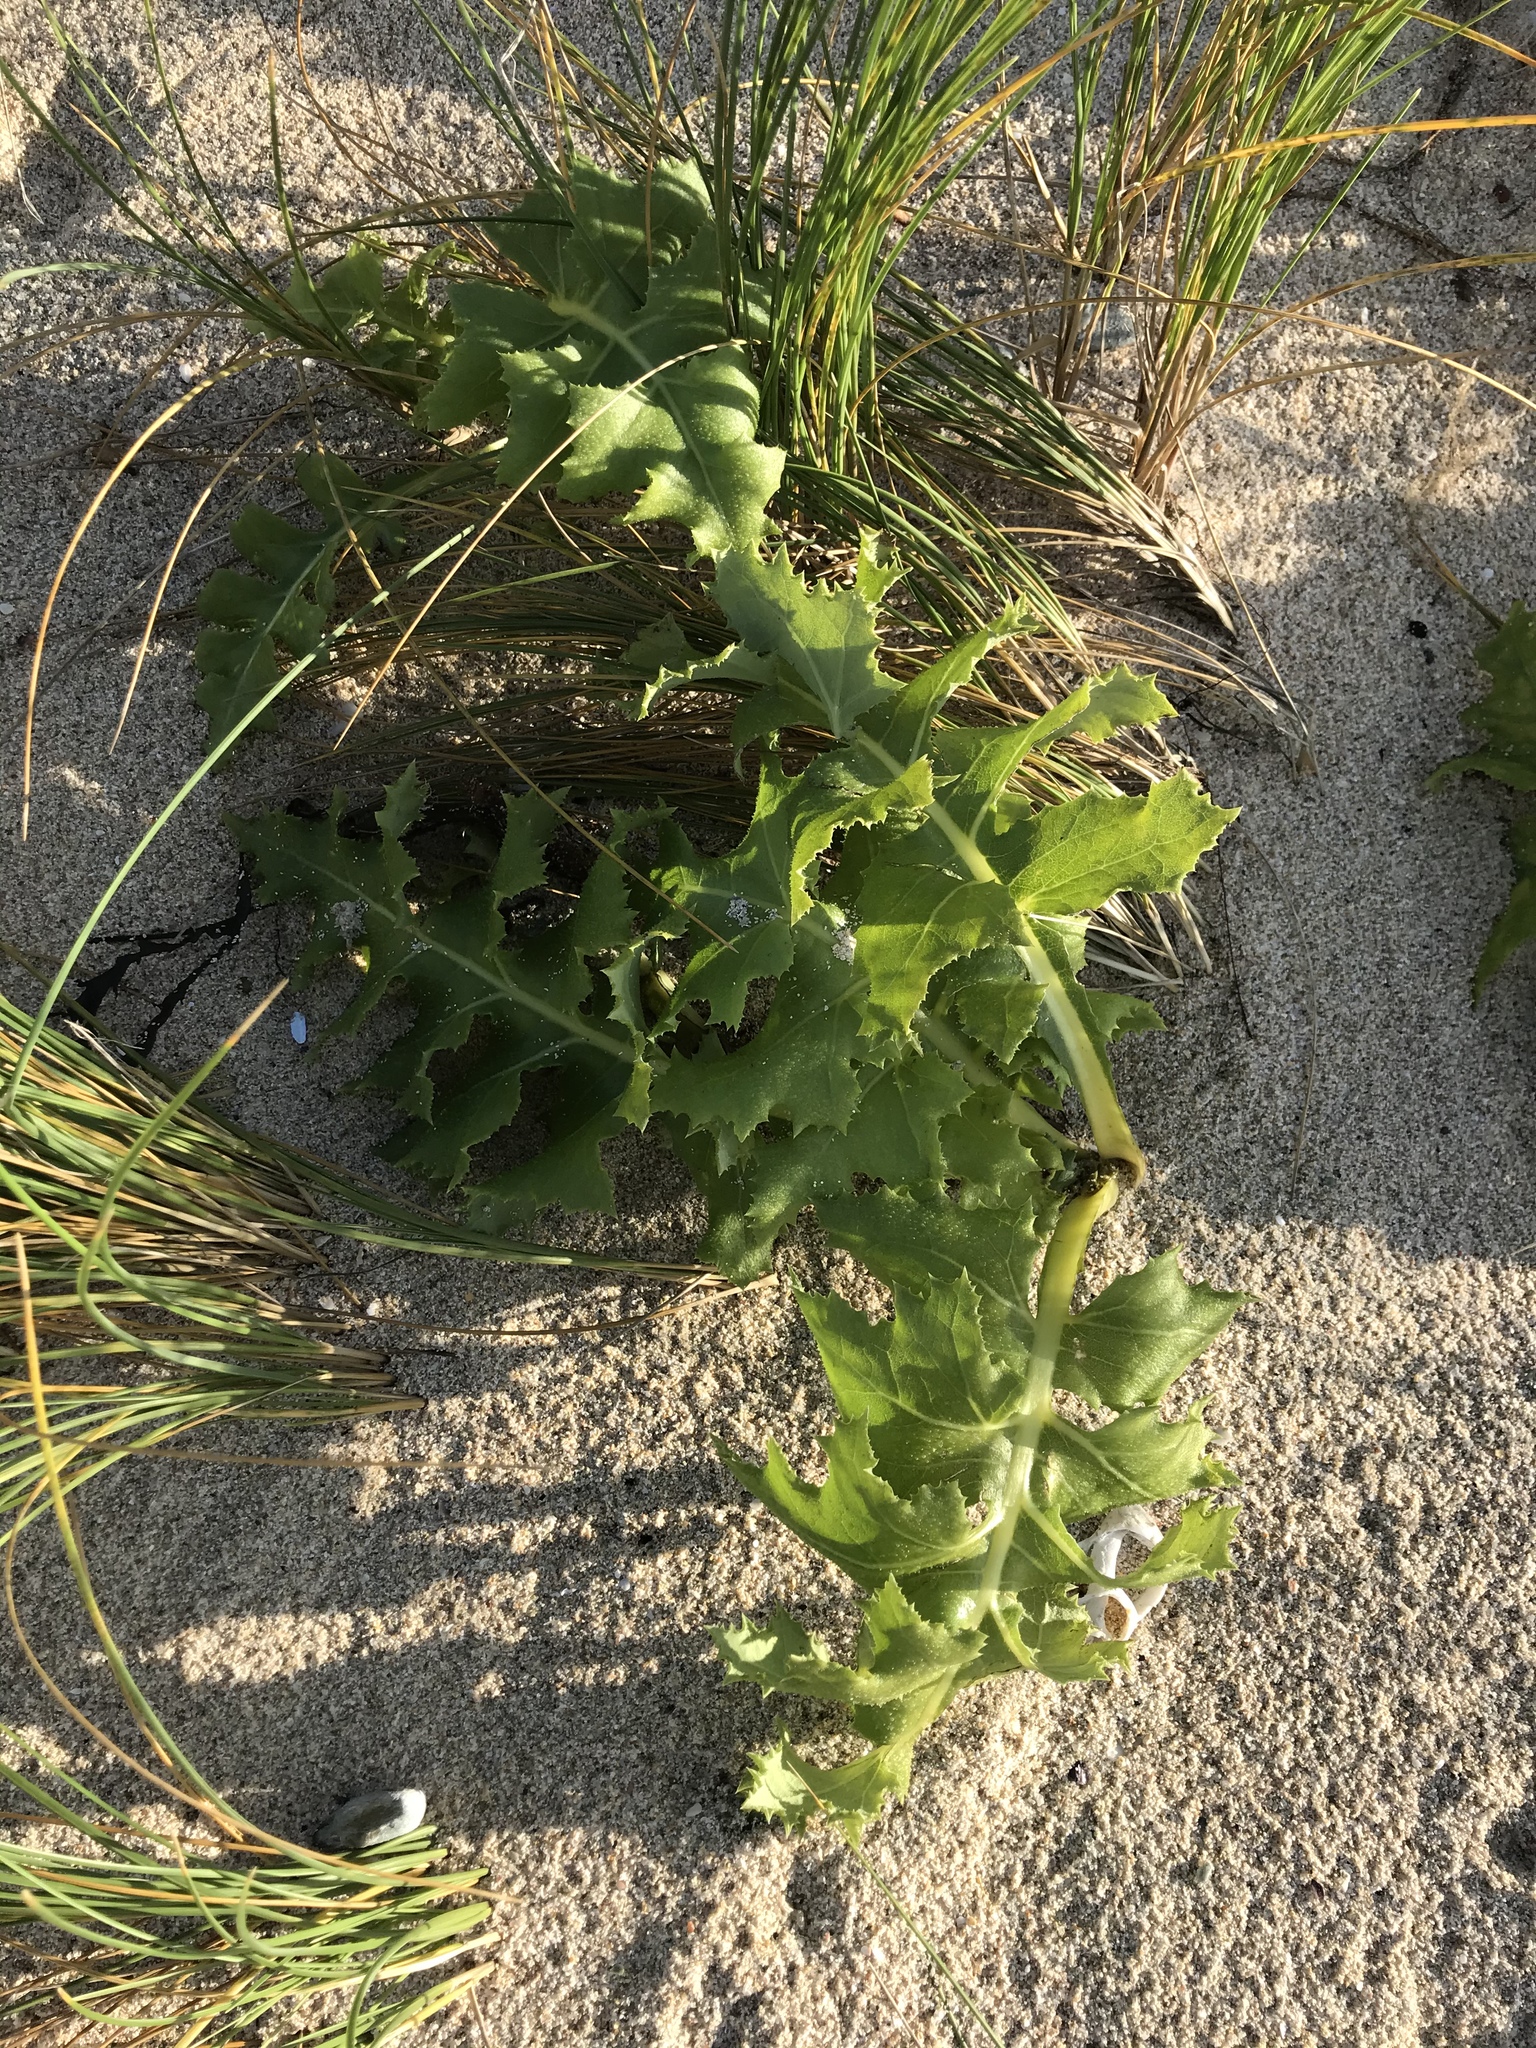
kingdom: Plantae
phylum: Tracheophyta
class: Magnoliopsida
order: Asterales
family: Asteraceae
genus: Sonchus
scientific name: Sonchus grandifolius
